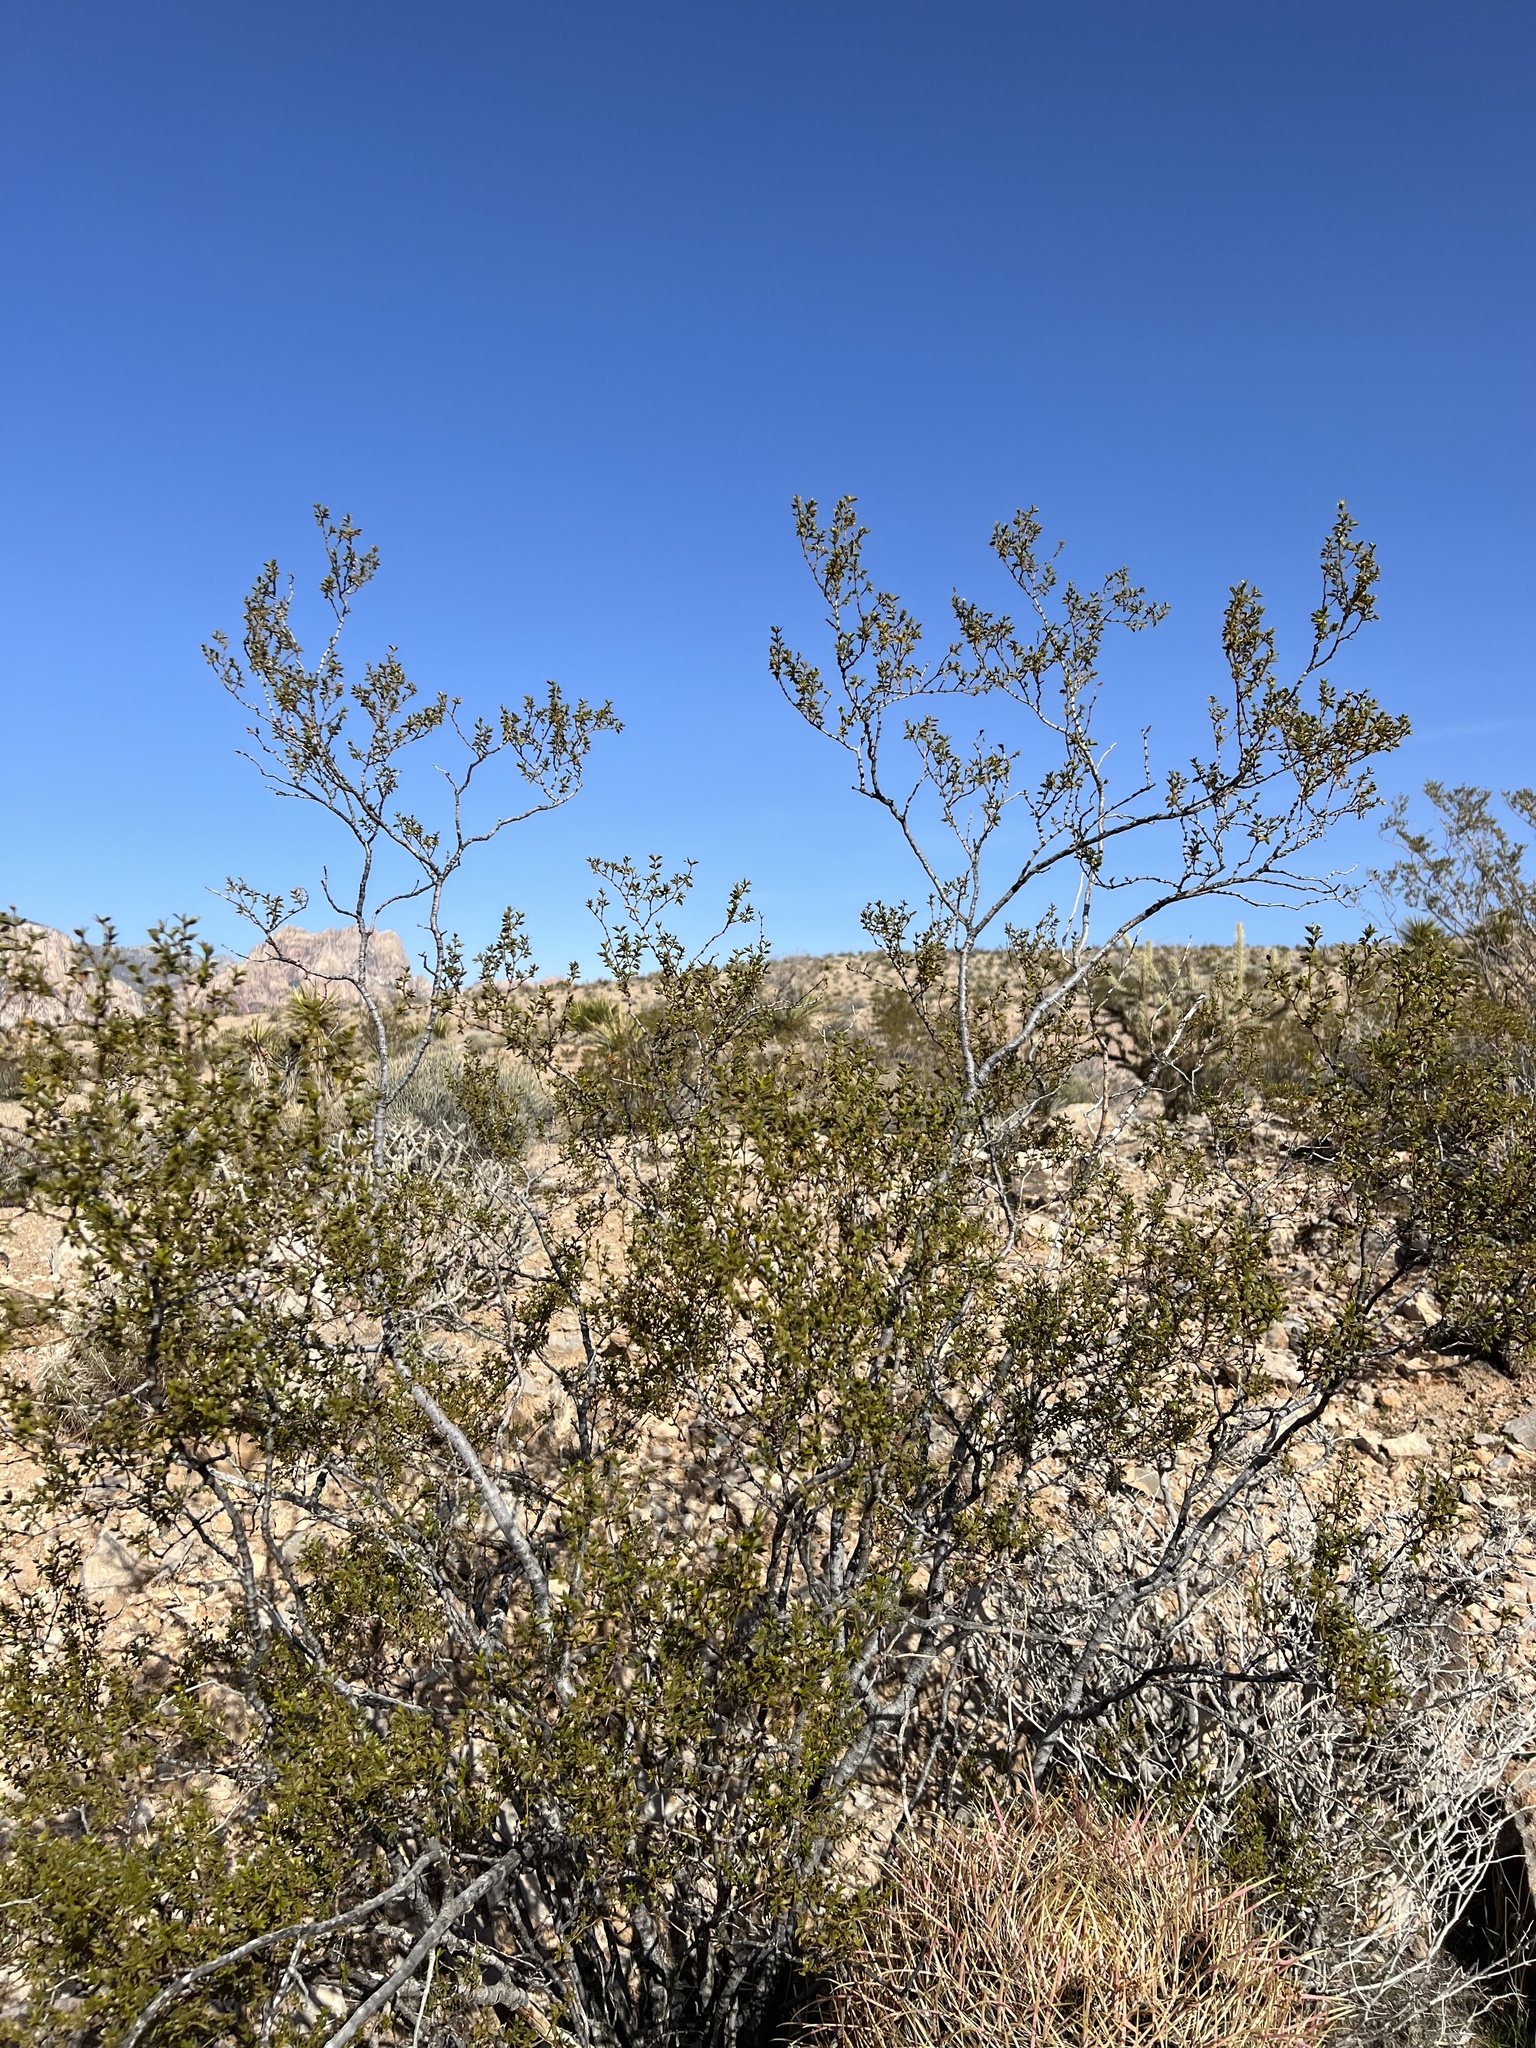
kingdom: Plantae
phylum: Tracheophyta
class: Magnoliopsida
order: Zygophyllales
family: Zygophyllaceae
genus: Larrea
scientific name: Larrea tridentata
